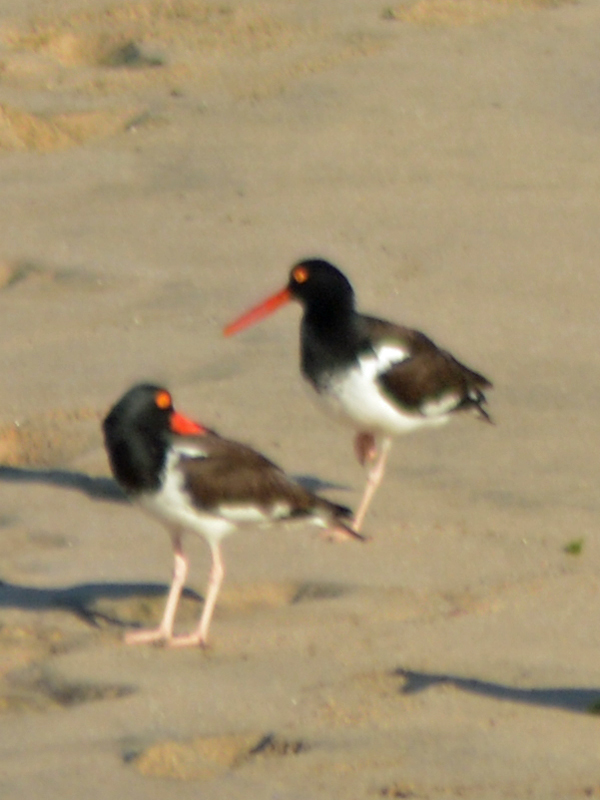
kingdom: Animalia
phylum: Chordata
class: Aves
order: Charadriiformes
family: Haematopodidae
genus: Haematopus
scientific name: Haematopus palliatus
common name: American oystercatcher
